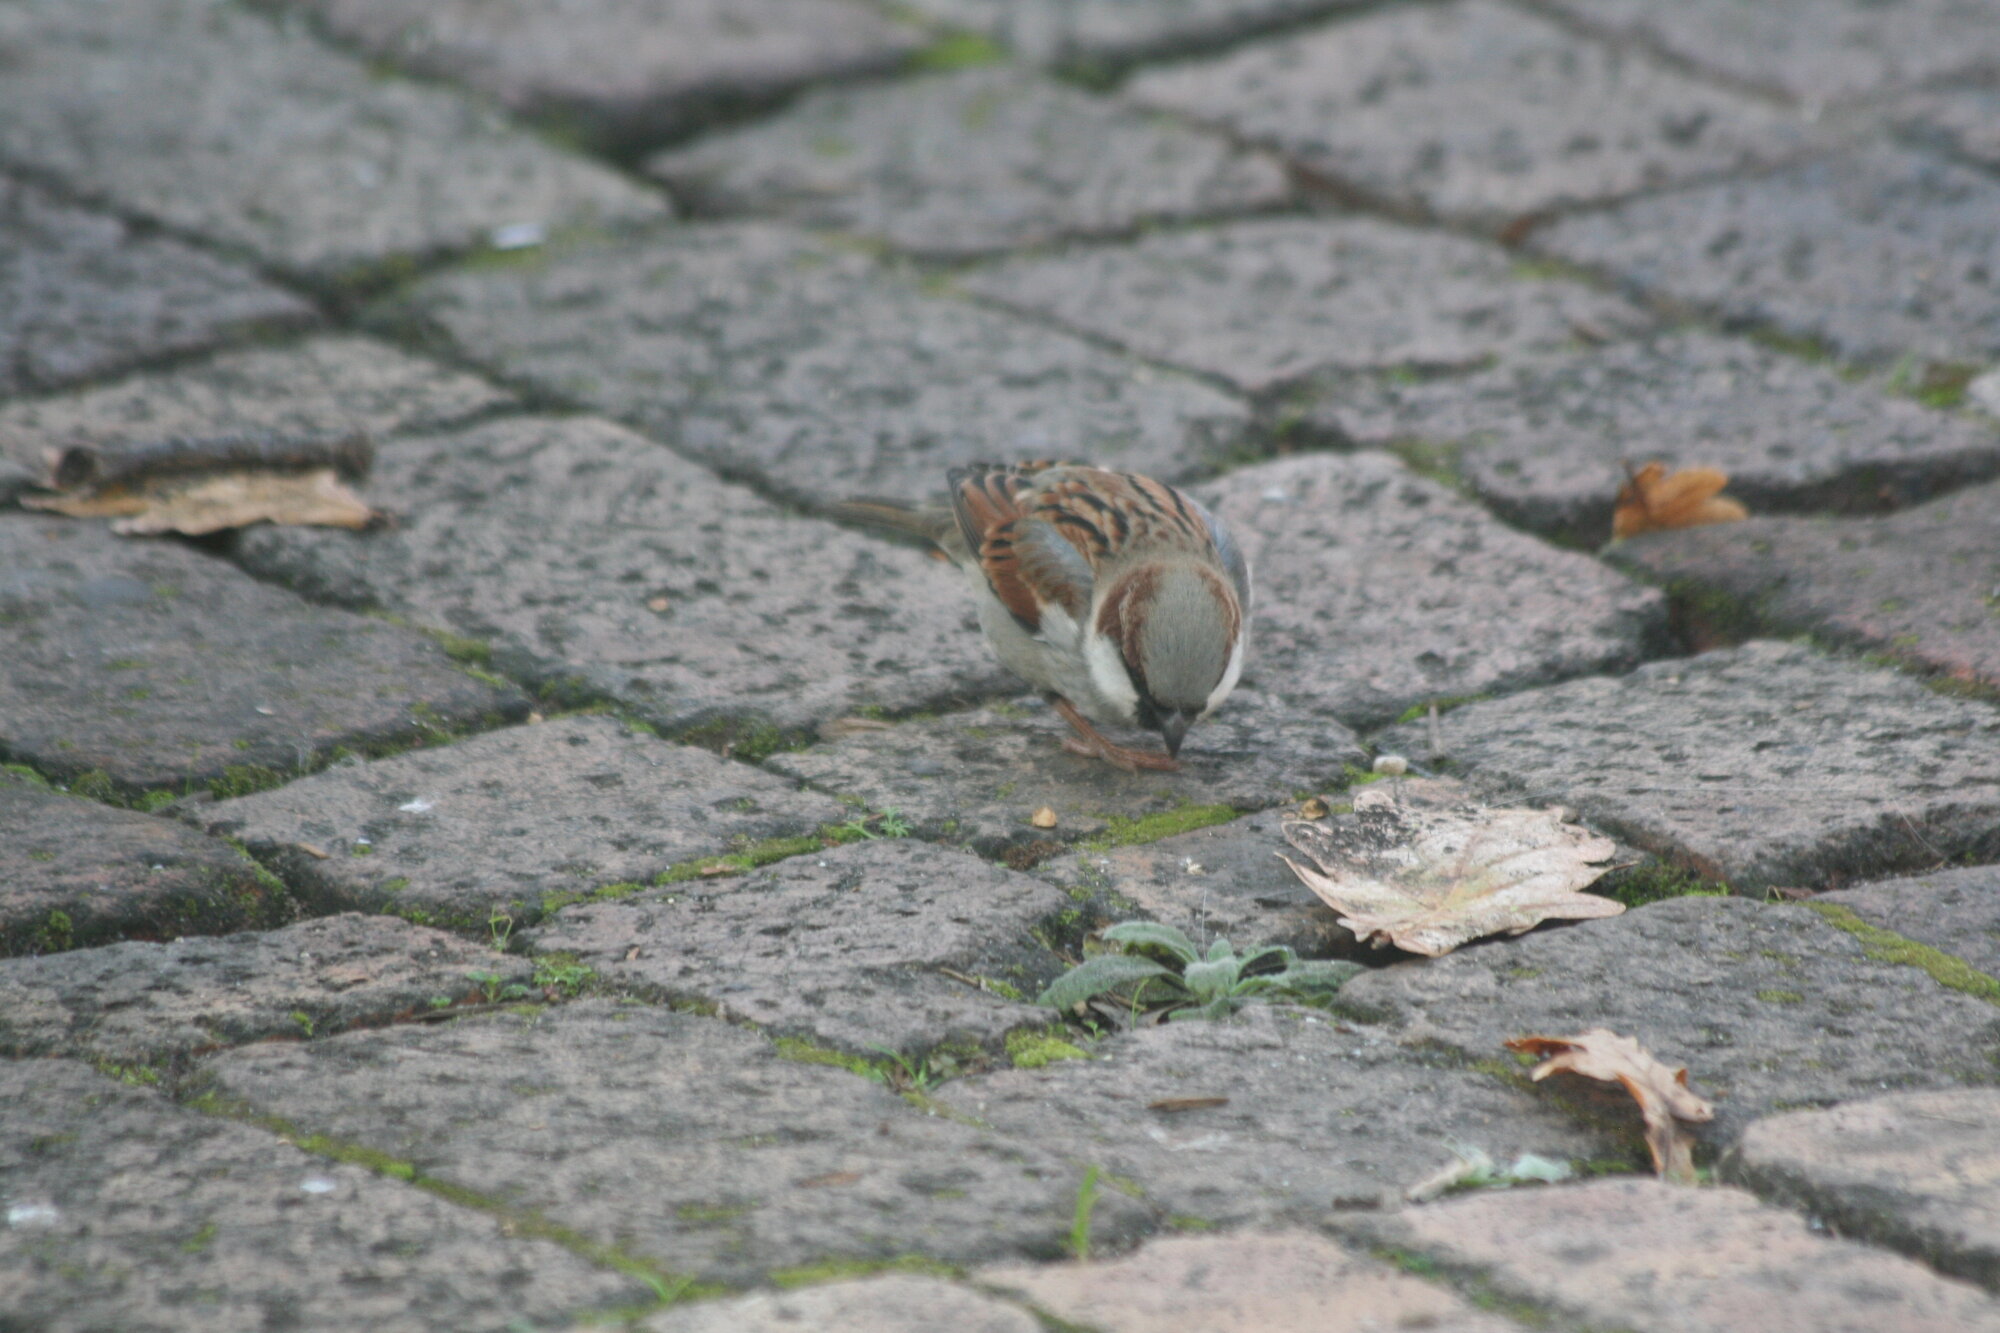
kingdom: Animalia
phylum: Chordata
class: Aves
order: Passeriformes
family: Passeridae
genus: Passer
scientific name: Passer domesticus
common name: House sparrow
